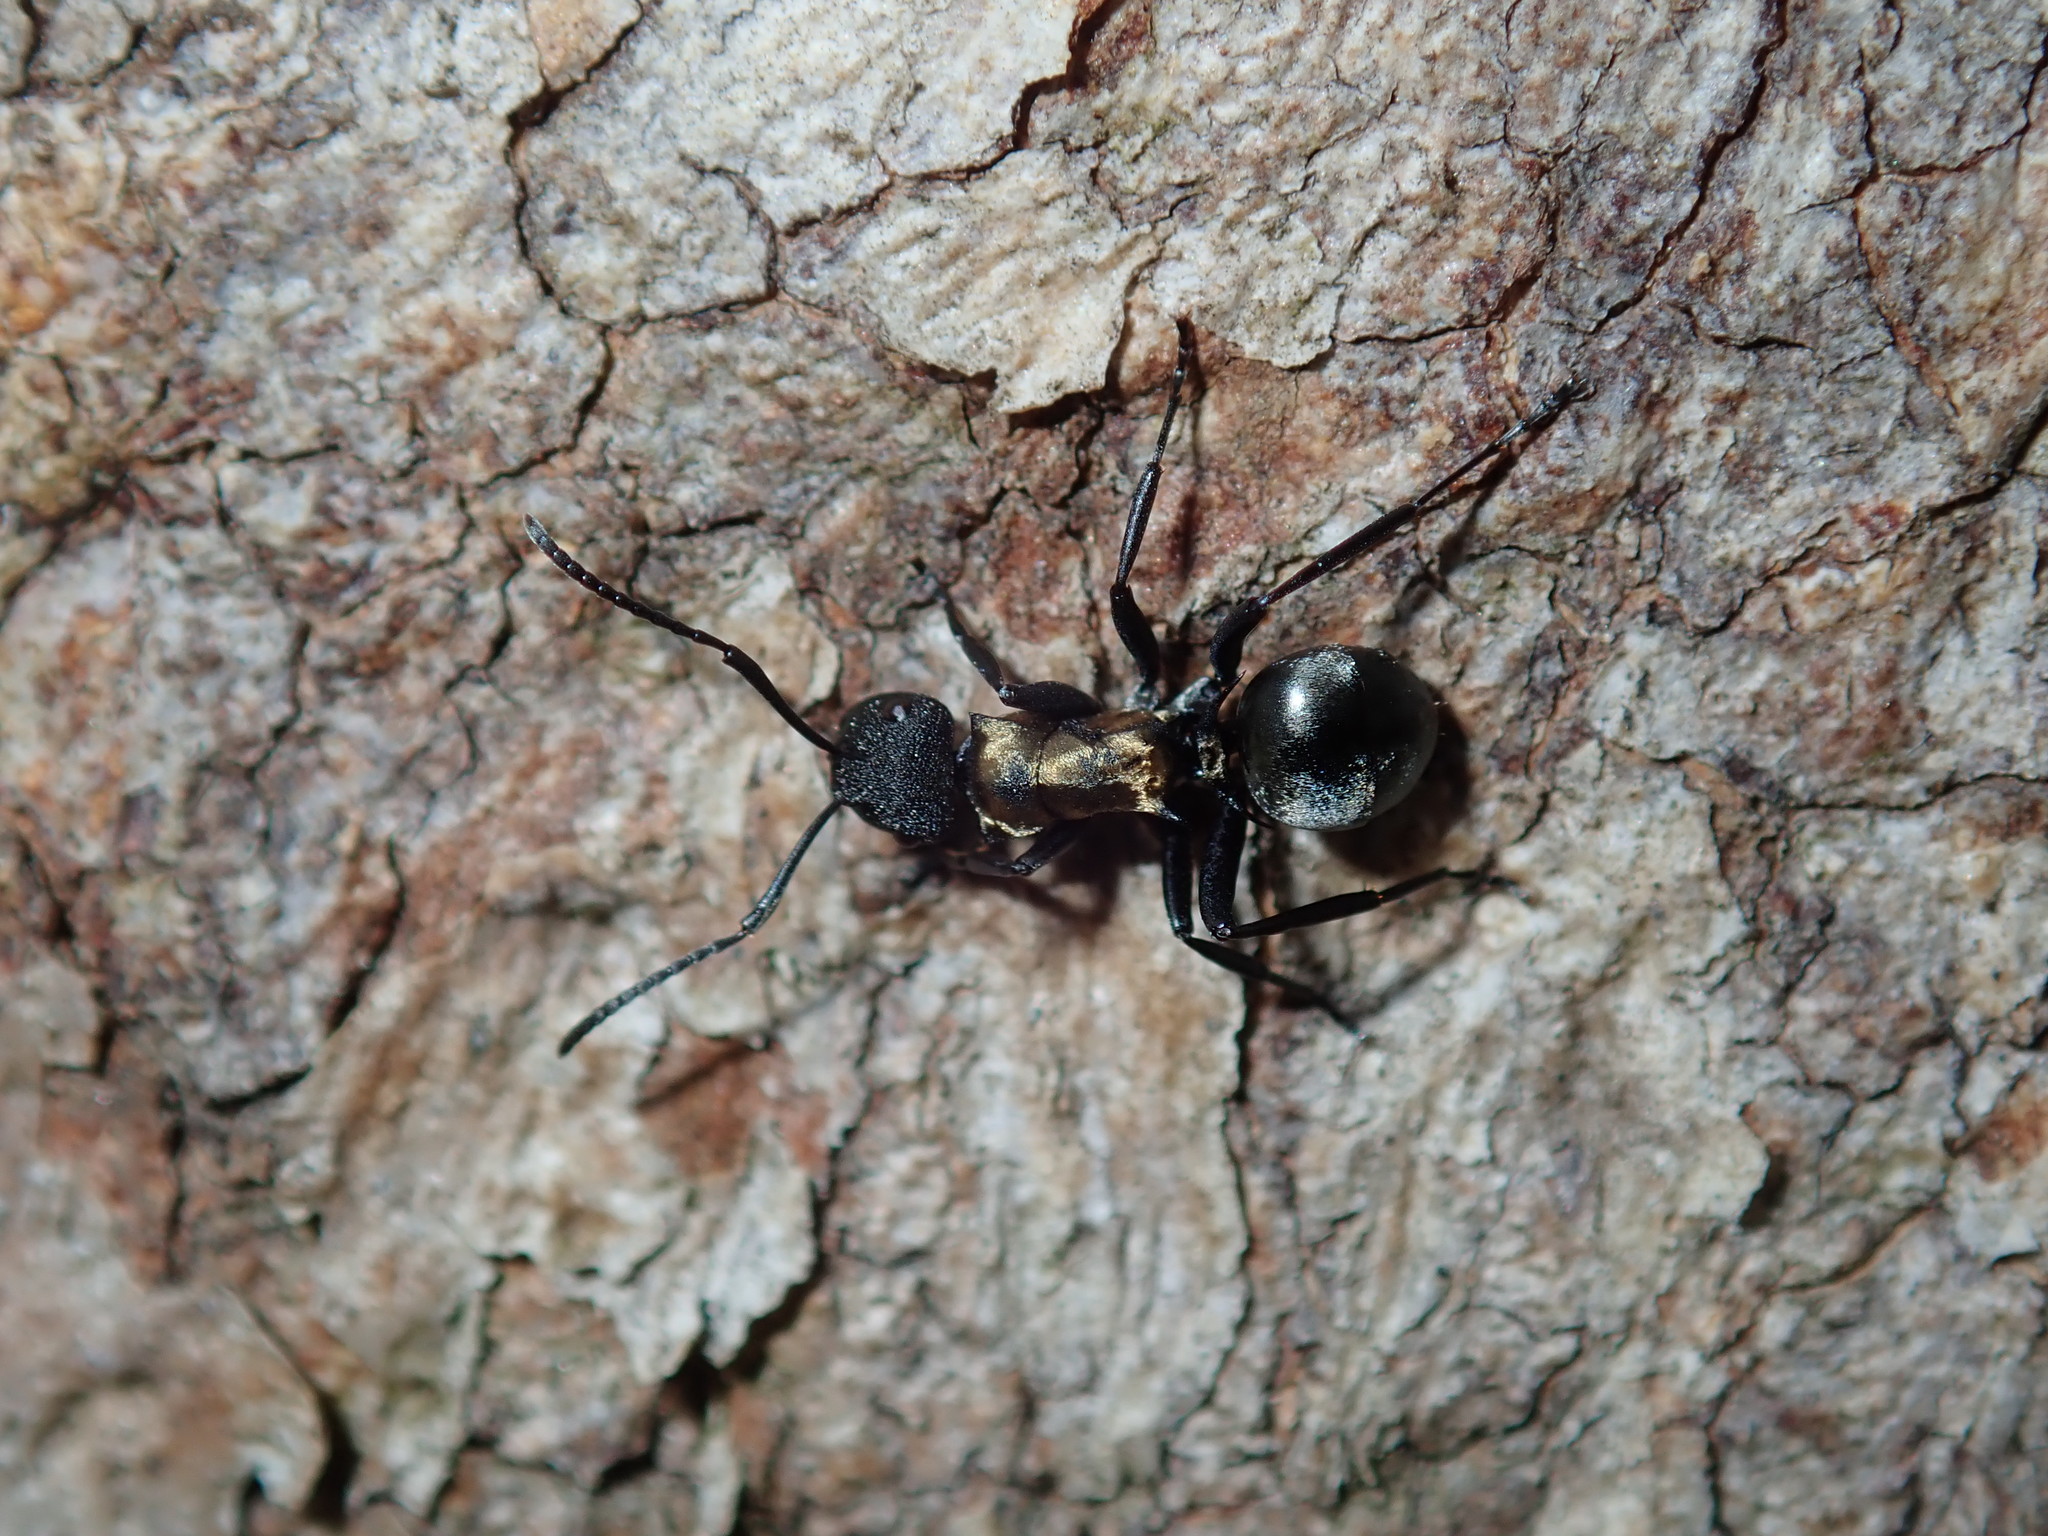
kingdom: Animalia
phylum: Arthropoda
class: Insecta
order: Hymenoptera
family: Formicidae
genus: Polyrhachis
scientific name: Polyrhachis ornata
